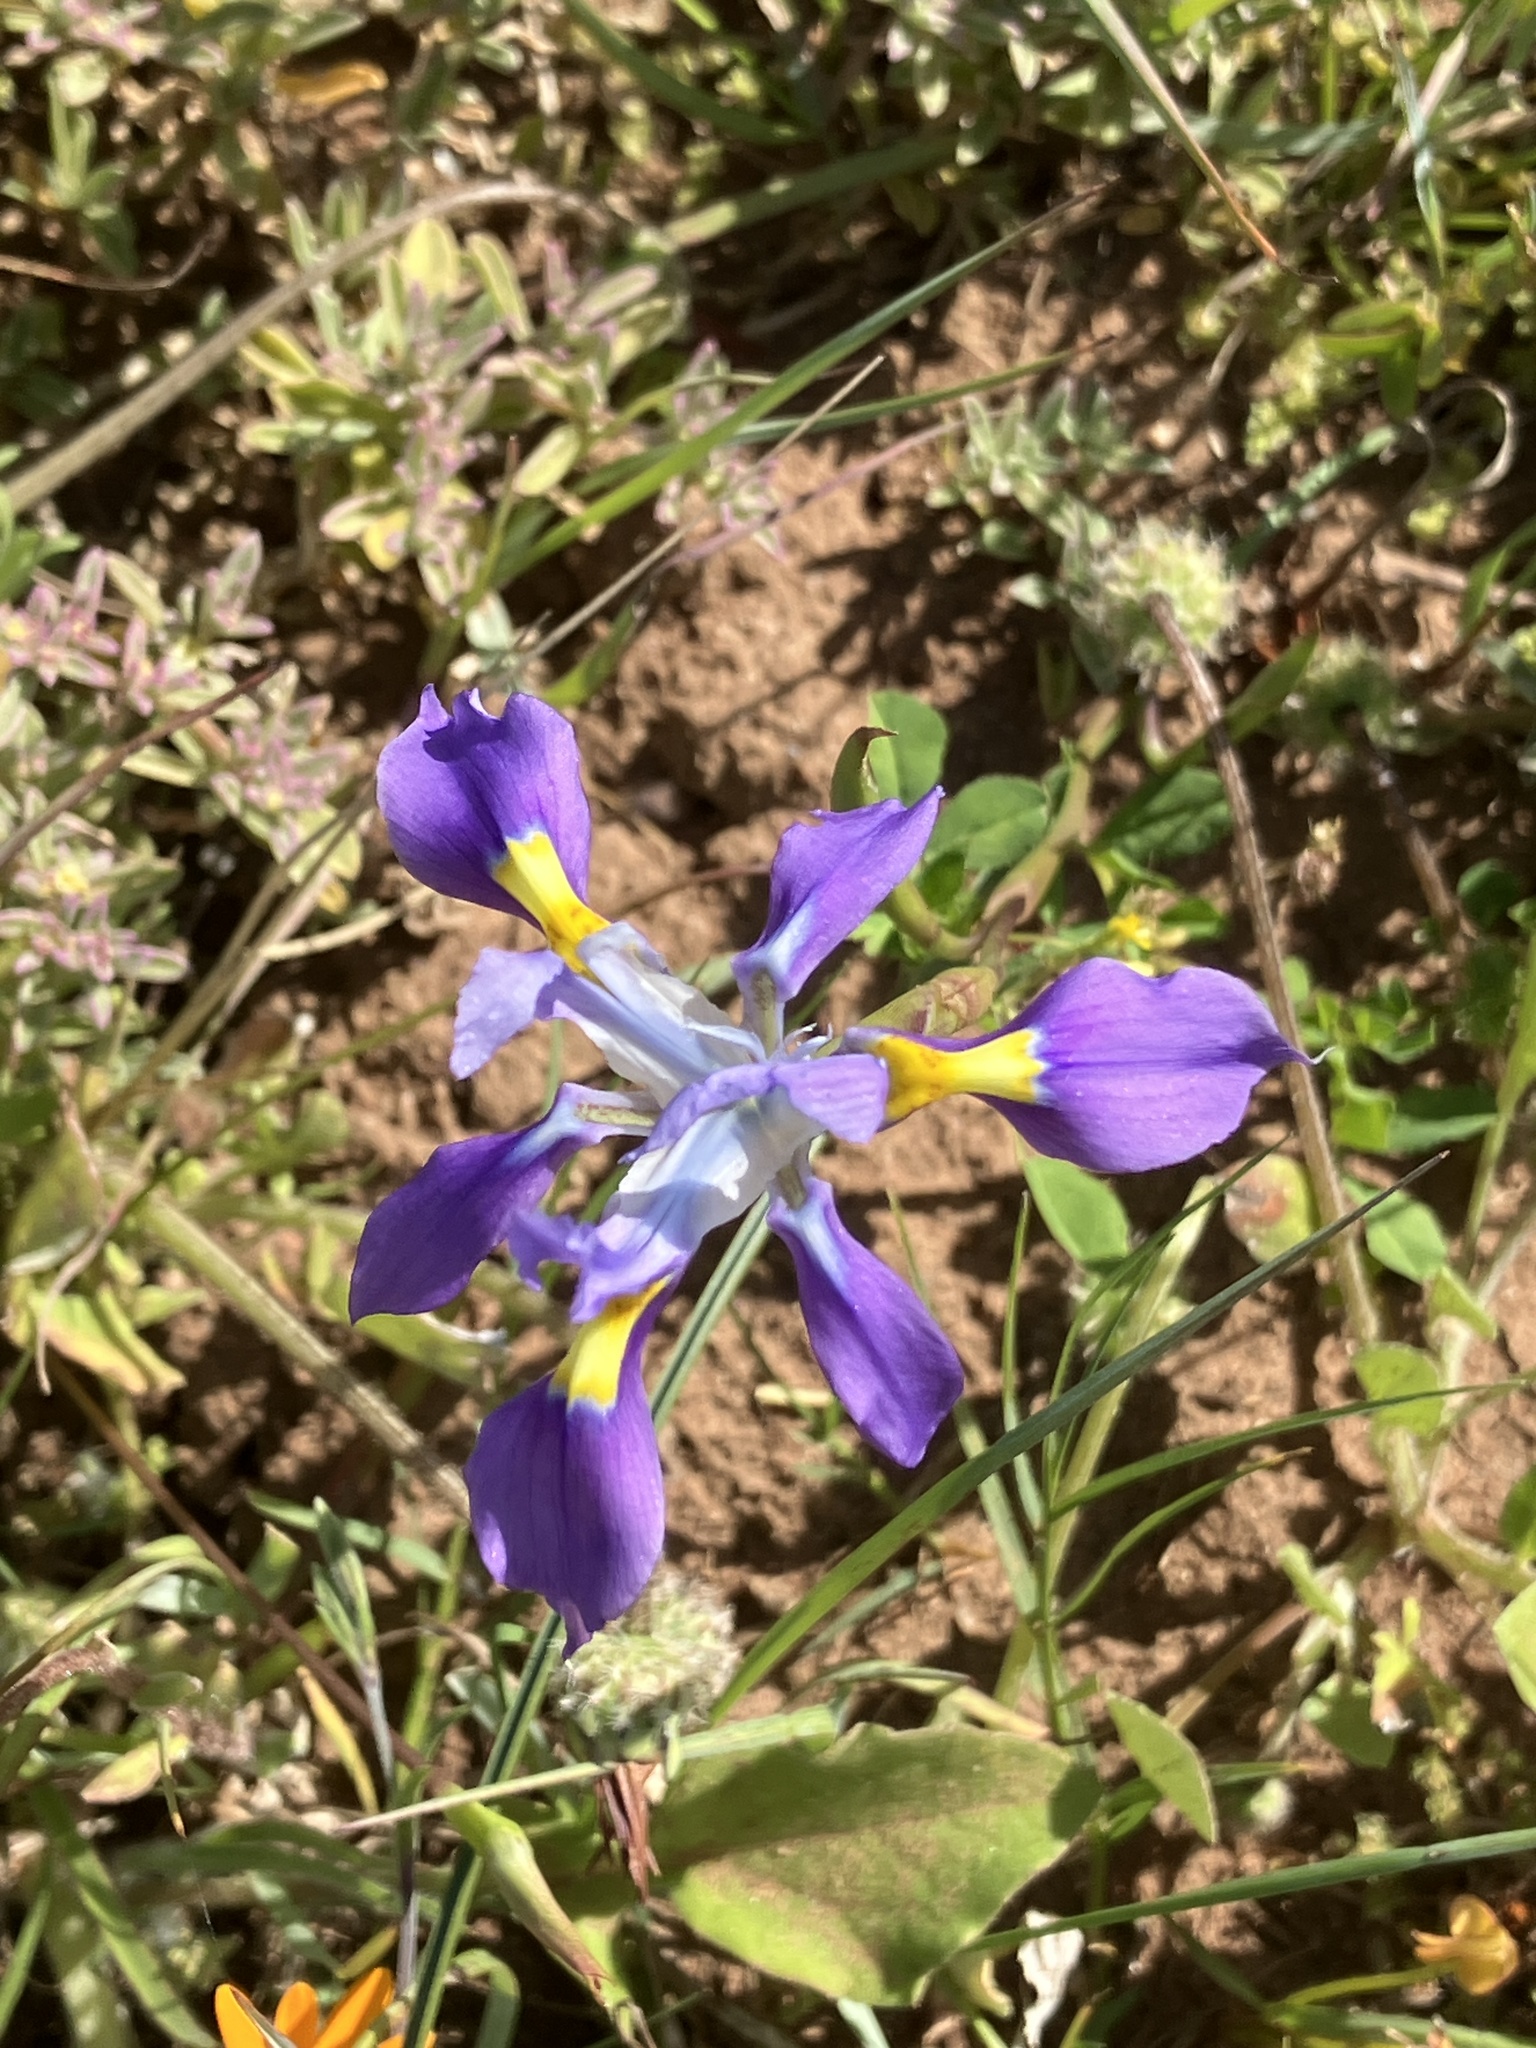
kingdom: Plantae
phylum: Tracheophyta
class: Liliopsida
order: Asparagales
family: Iridaceae
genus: Moraea
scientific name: Moraea fugax
